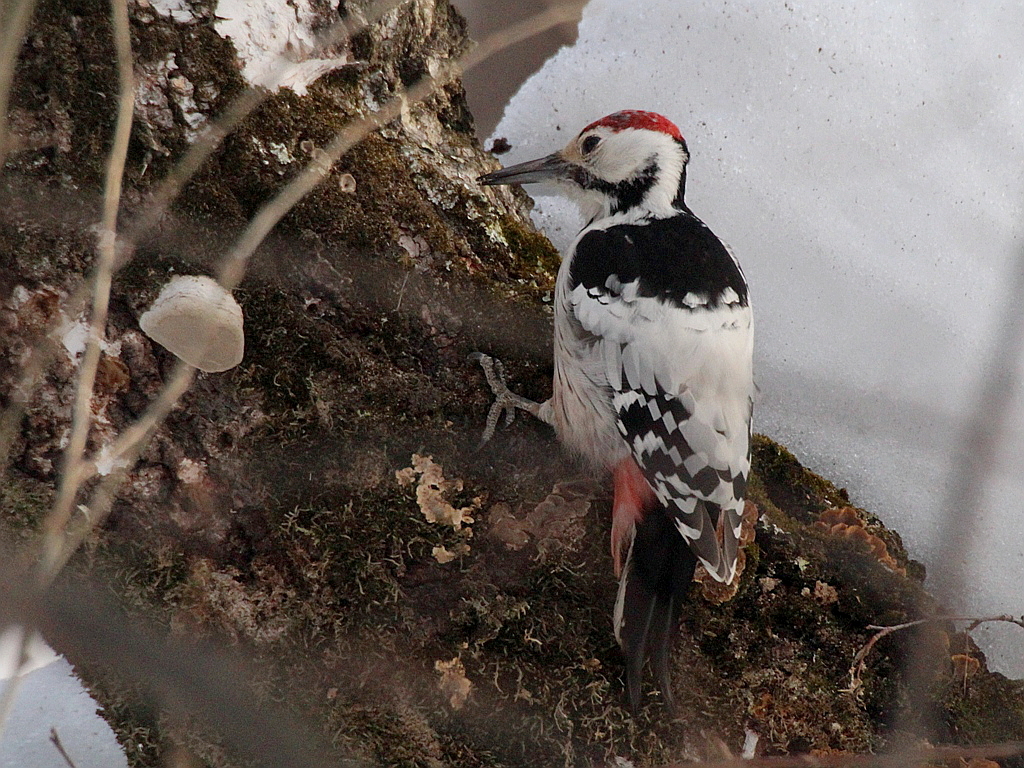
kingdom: Animalia
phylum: Chordata
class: Aves
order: Piciformes
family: Picidae
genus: Dendrocopos
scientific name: Dendrocopos leucotos
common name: White-backed woodpecker
